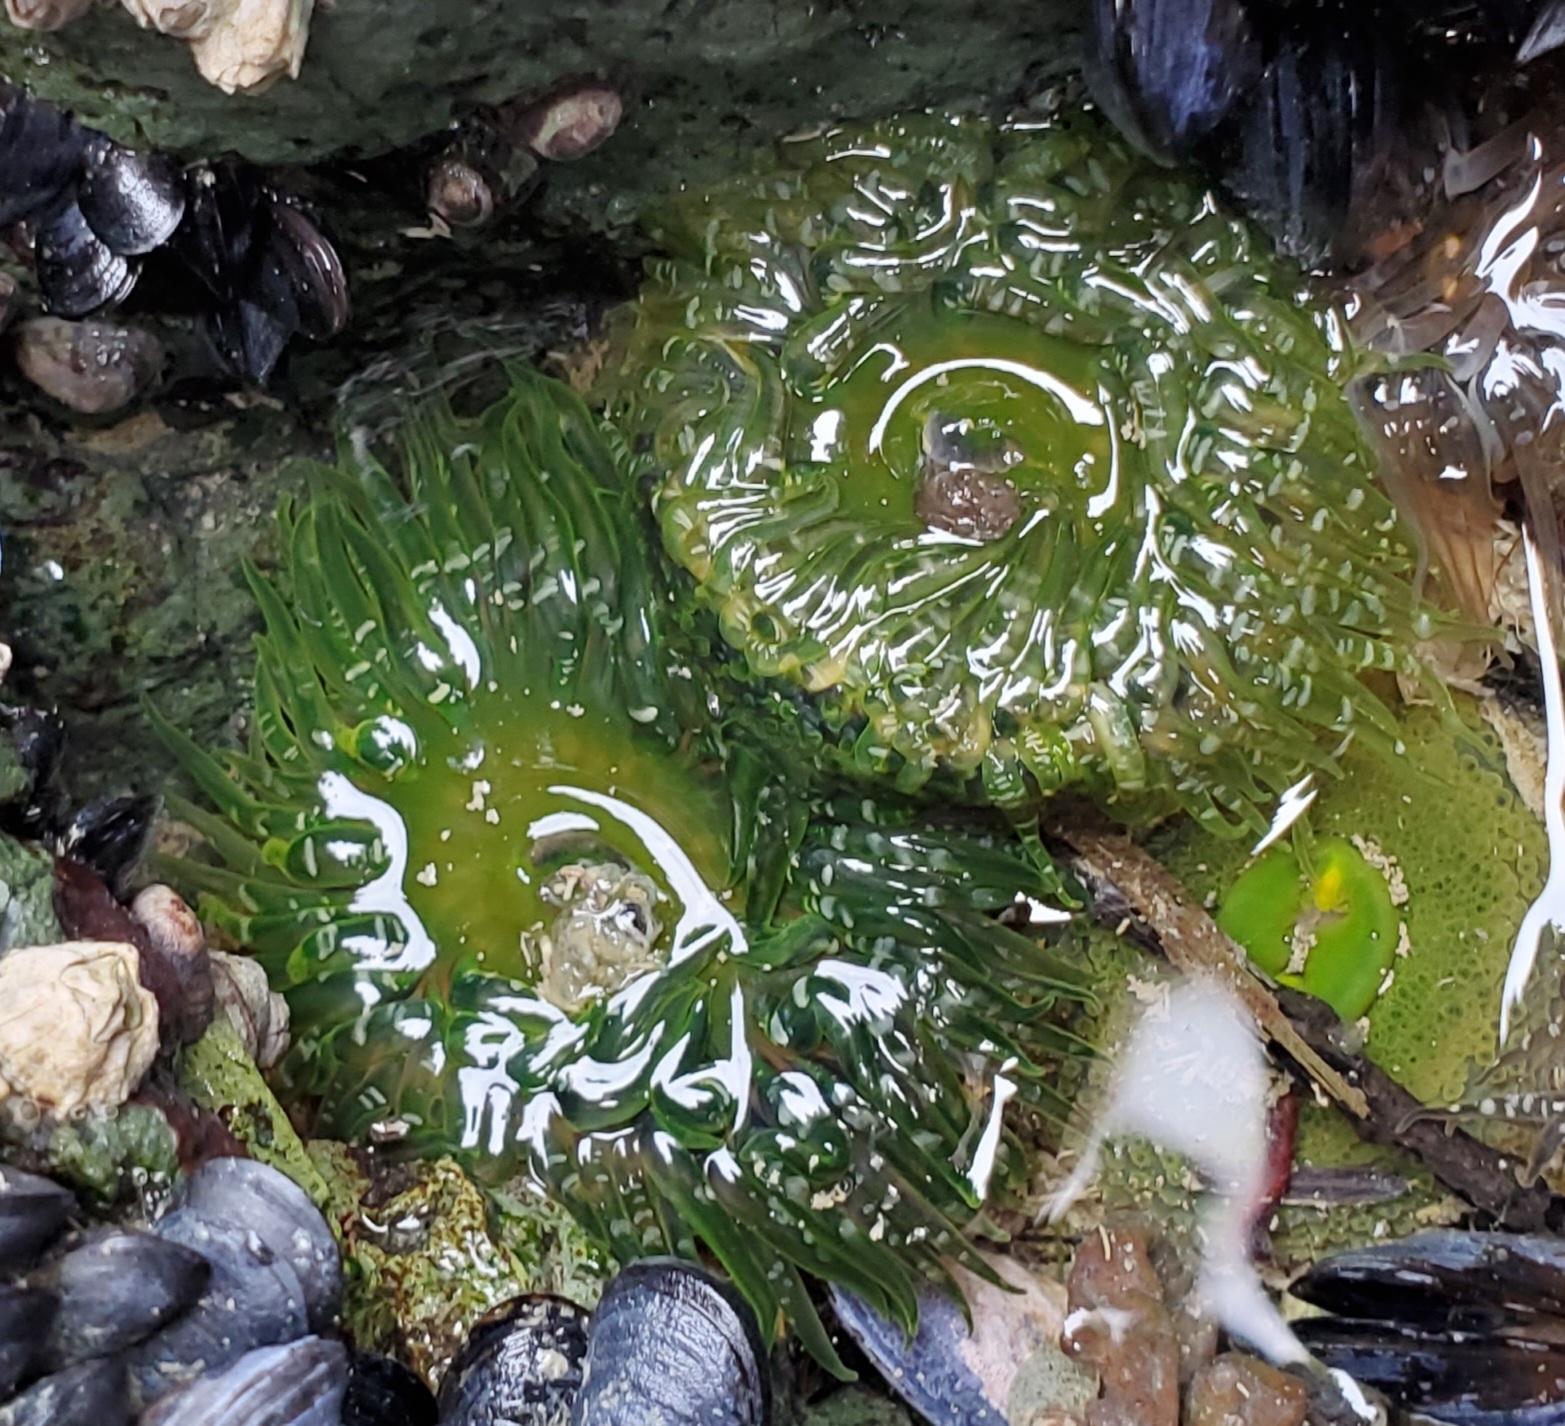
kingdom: Animalia
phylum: Cnidaria
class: Anthozoa
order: Actiniaria
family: Actiniidae
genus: Anthopleura
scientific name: Anthopleura artemisia
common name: Buried sea anemone
